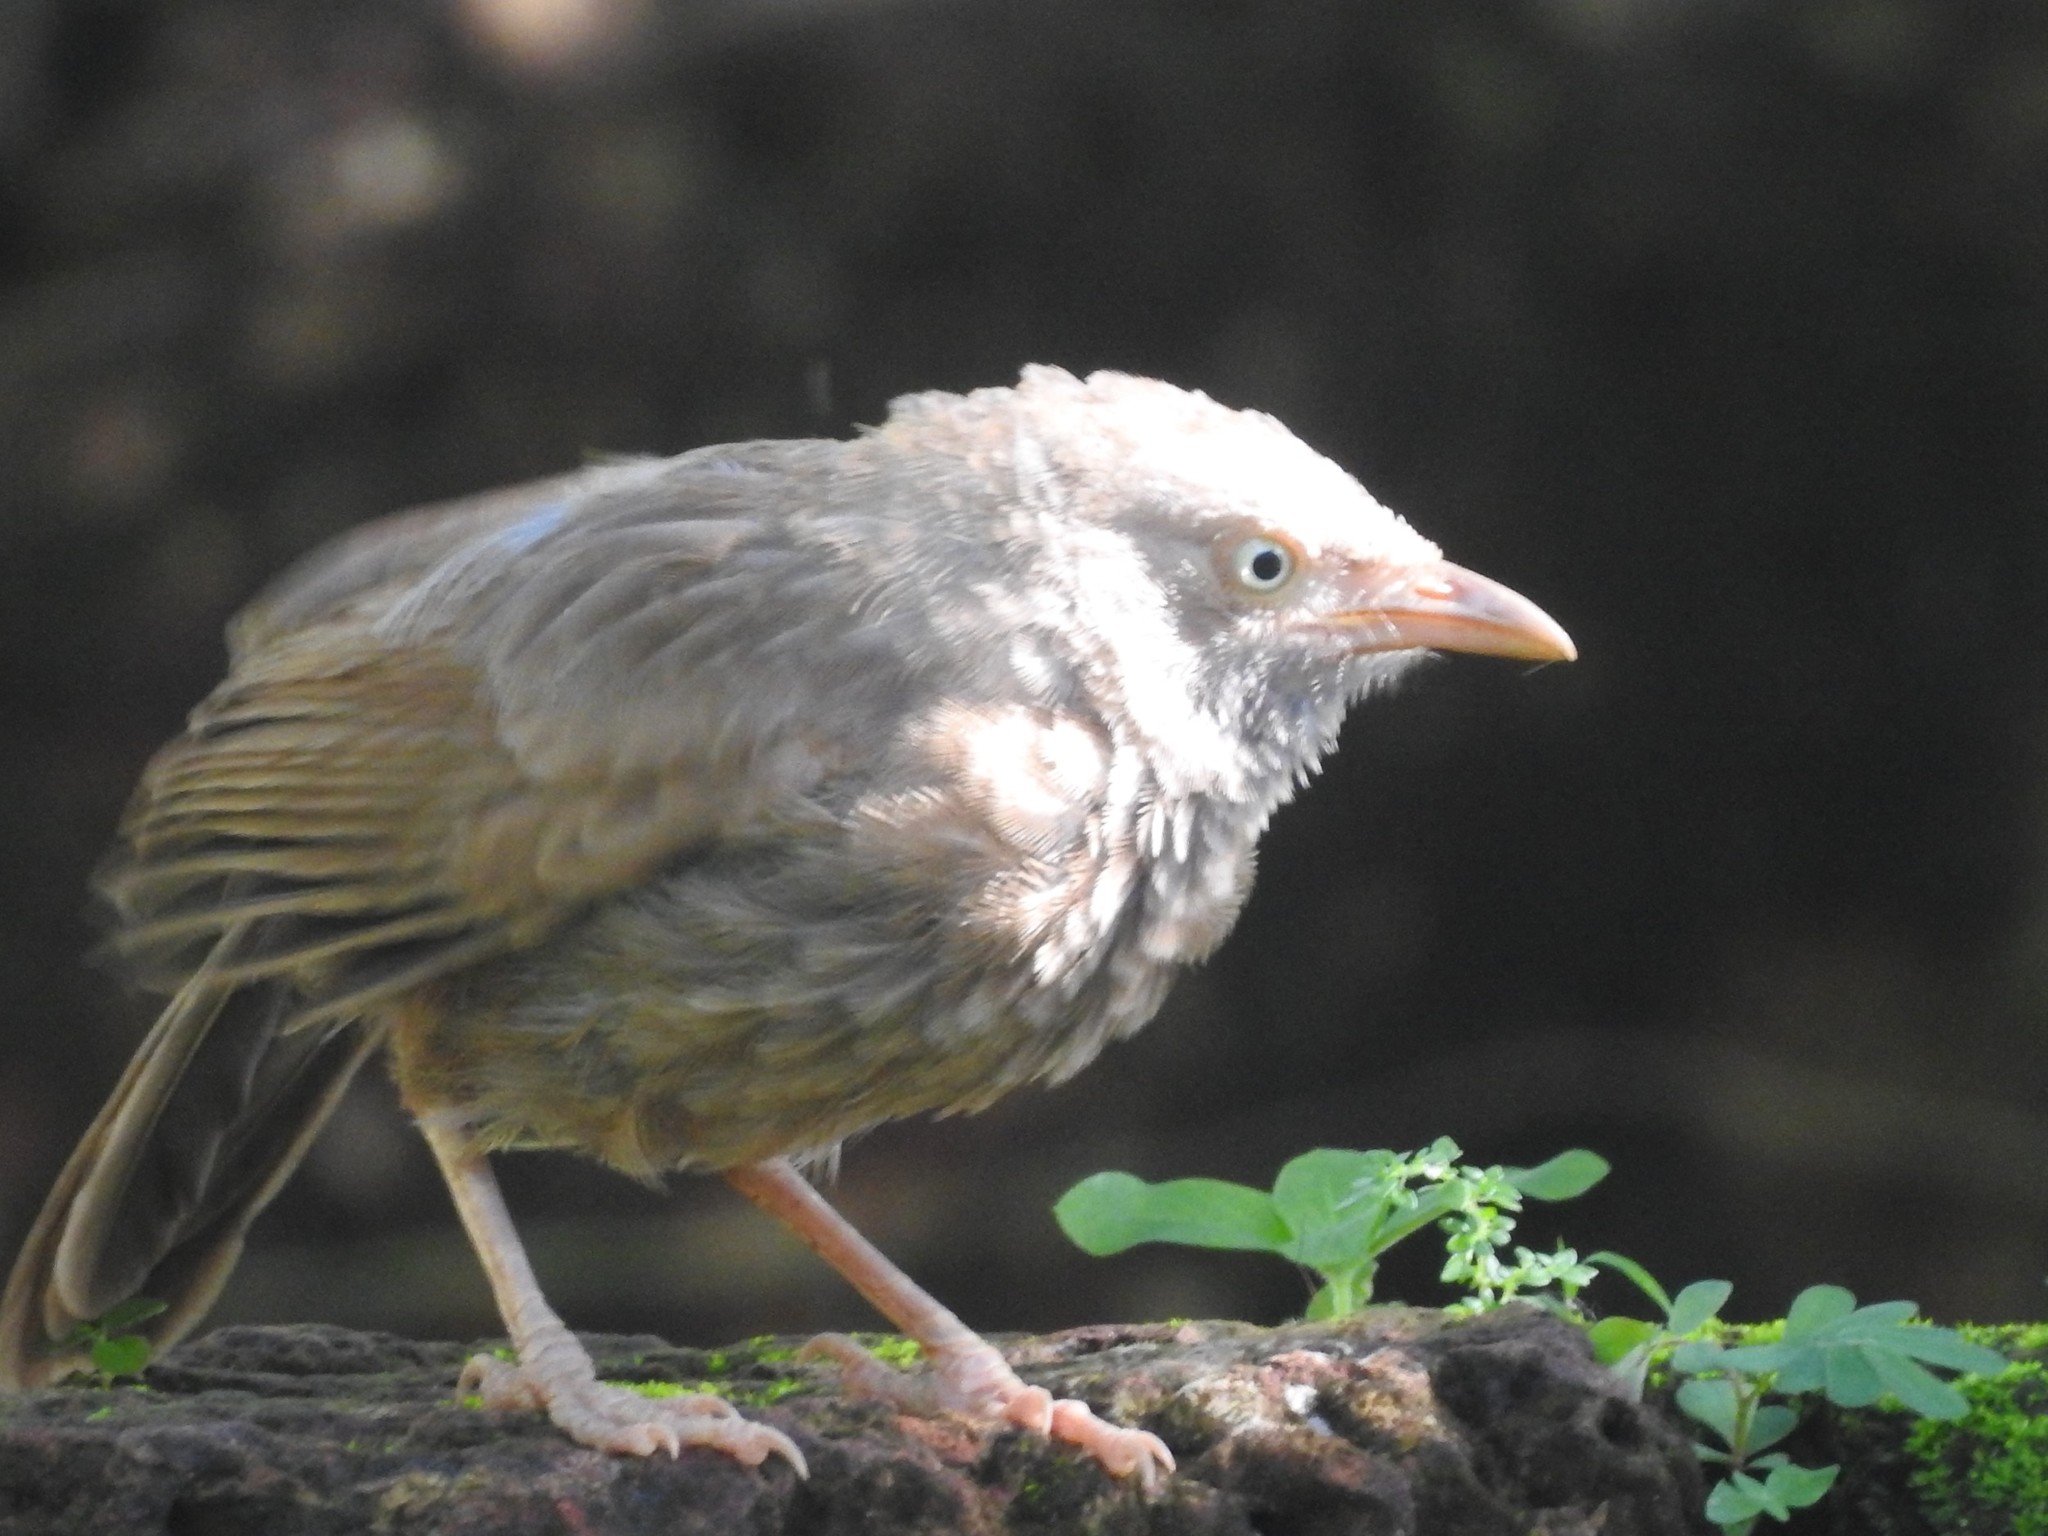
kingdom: Animalia
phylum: Chordata
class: Aves
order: Passeriformes
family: Leiothrichidae
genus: Turdoides
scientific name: Turdoides striata
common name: Jungle babbler
